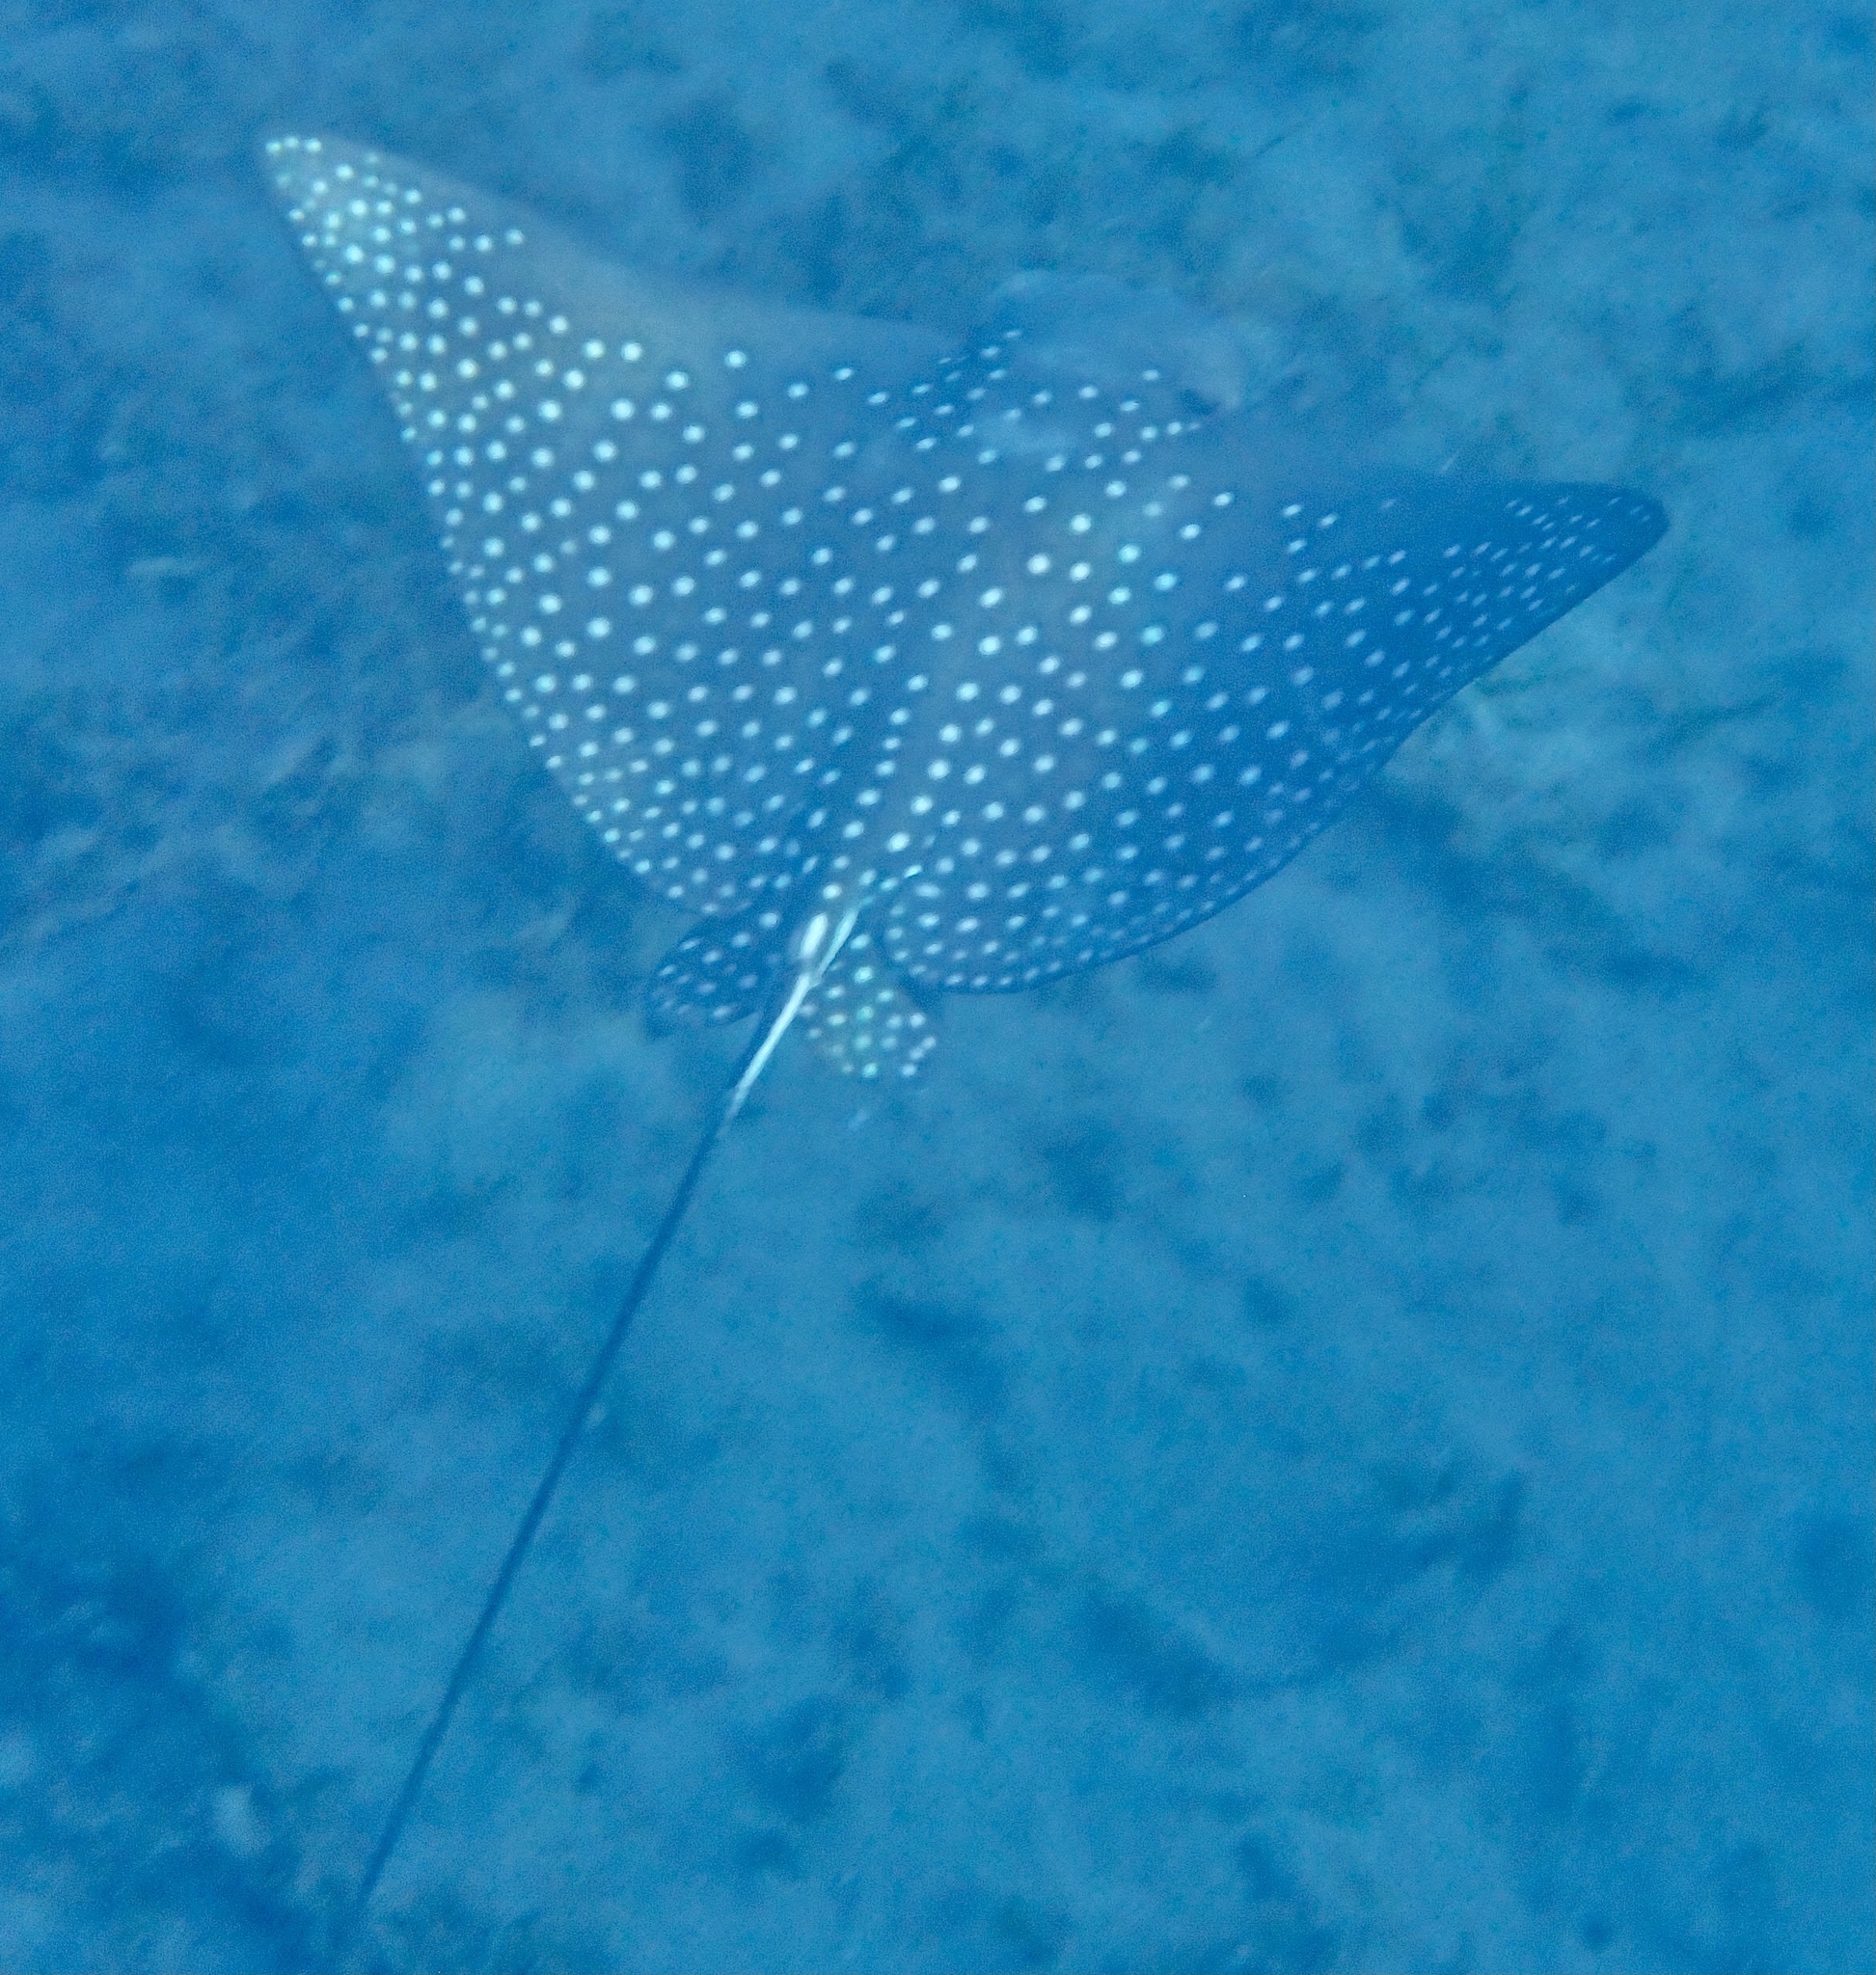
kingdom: Animalia
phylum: Chordata
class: Elasmobranchii
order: Myliobatiformes
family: Myliobatidae
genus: Aetobatus
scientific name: Aetobatus ocellatus
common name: Ocellated eagle ray
